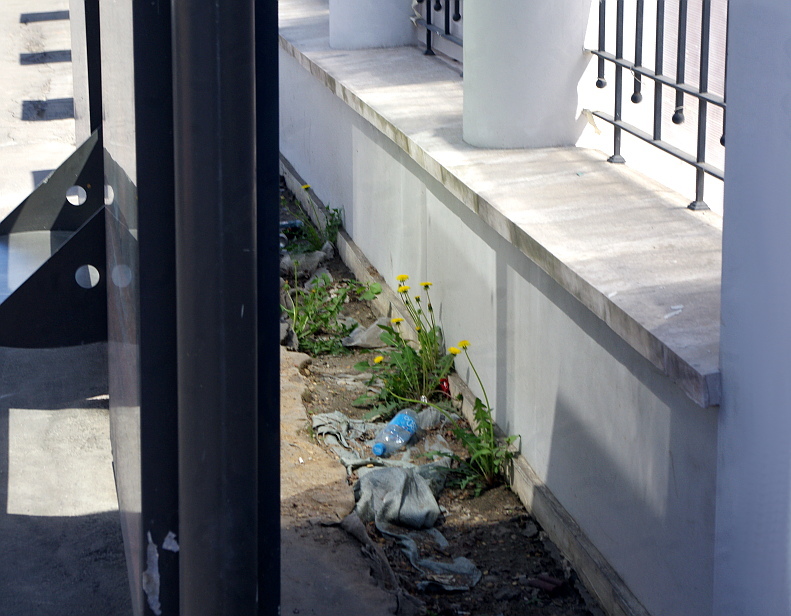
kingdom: Plantae
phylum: Tracheophyta
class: Magnoliopsida
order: Asterales
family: Asteraceae
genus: Taraxacum
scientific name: Taraxacum officinale
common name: Common dandelion
